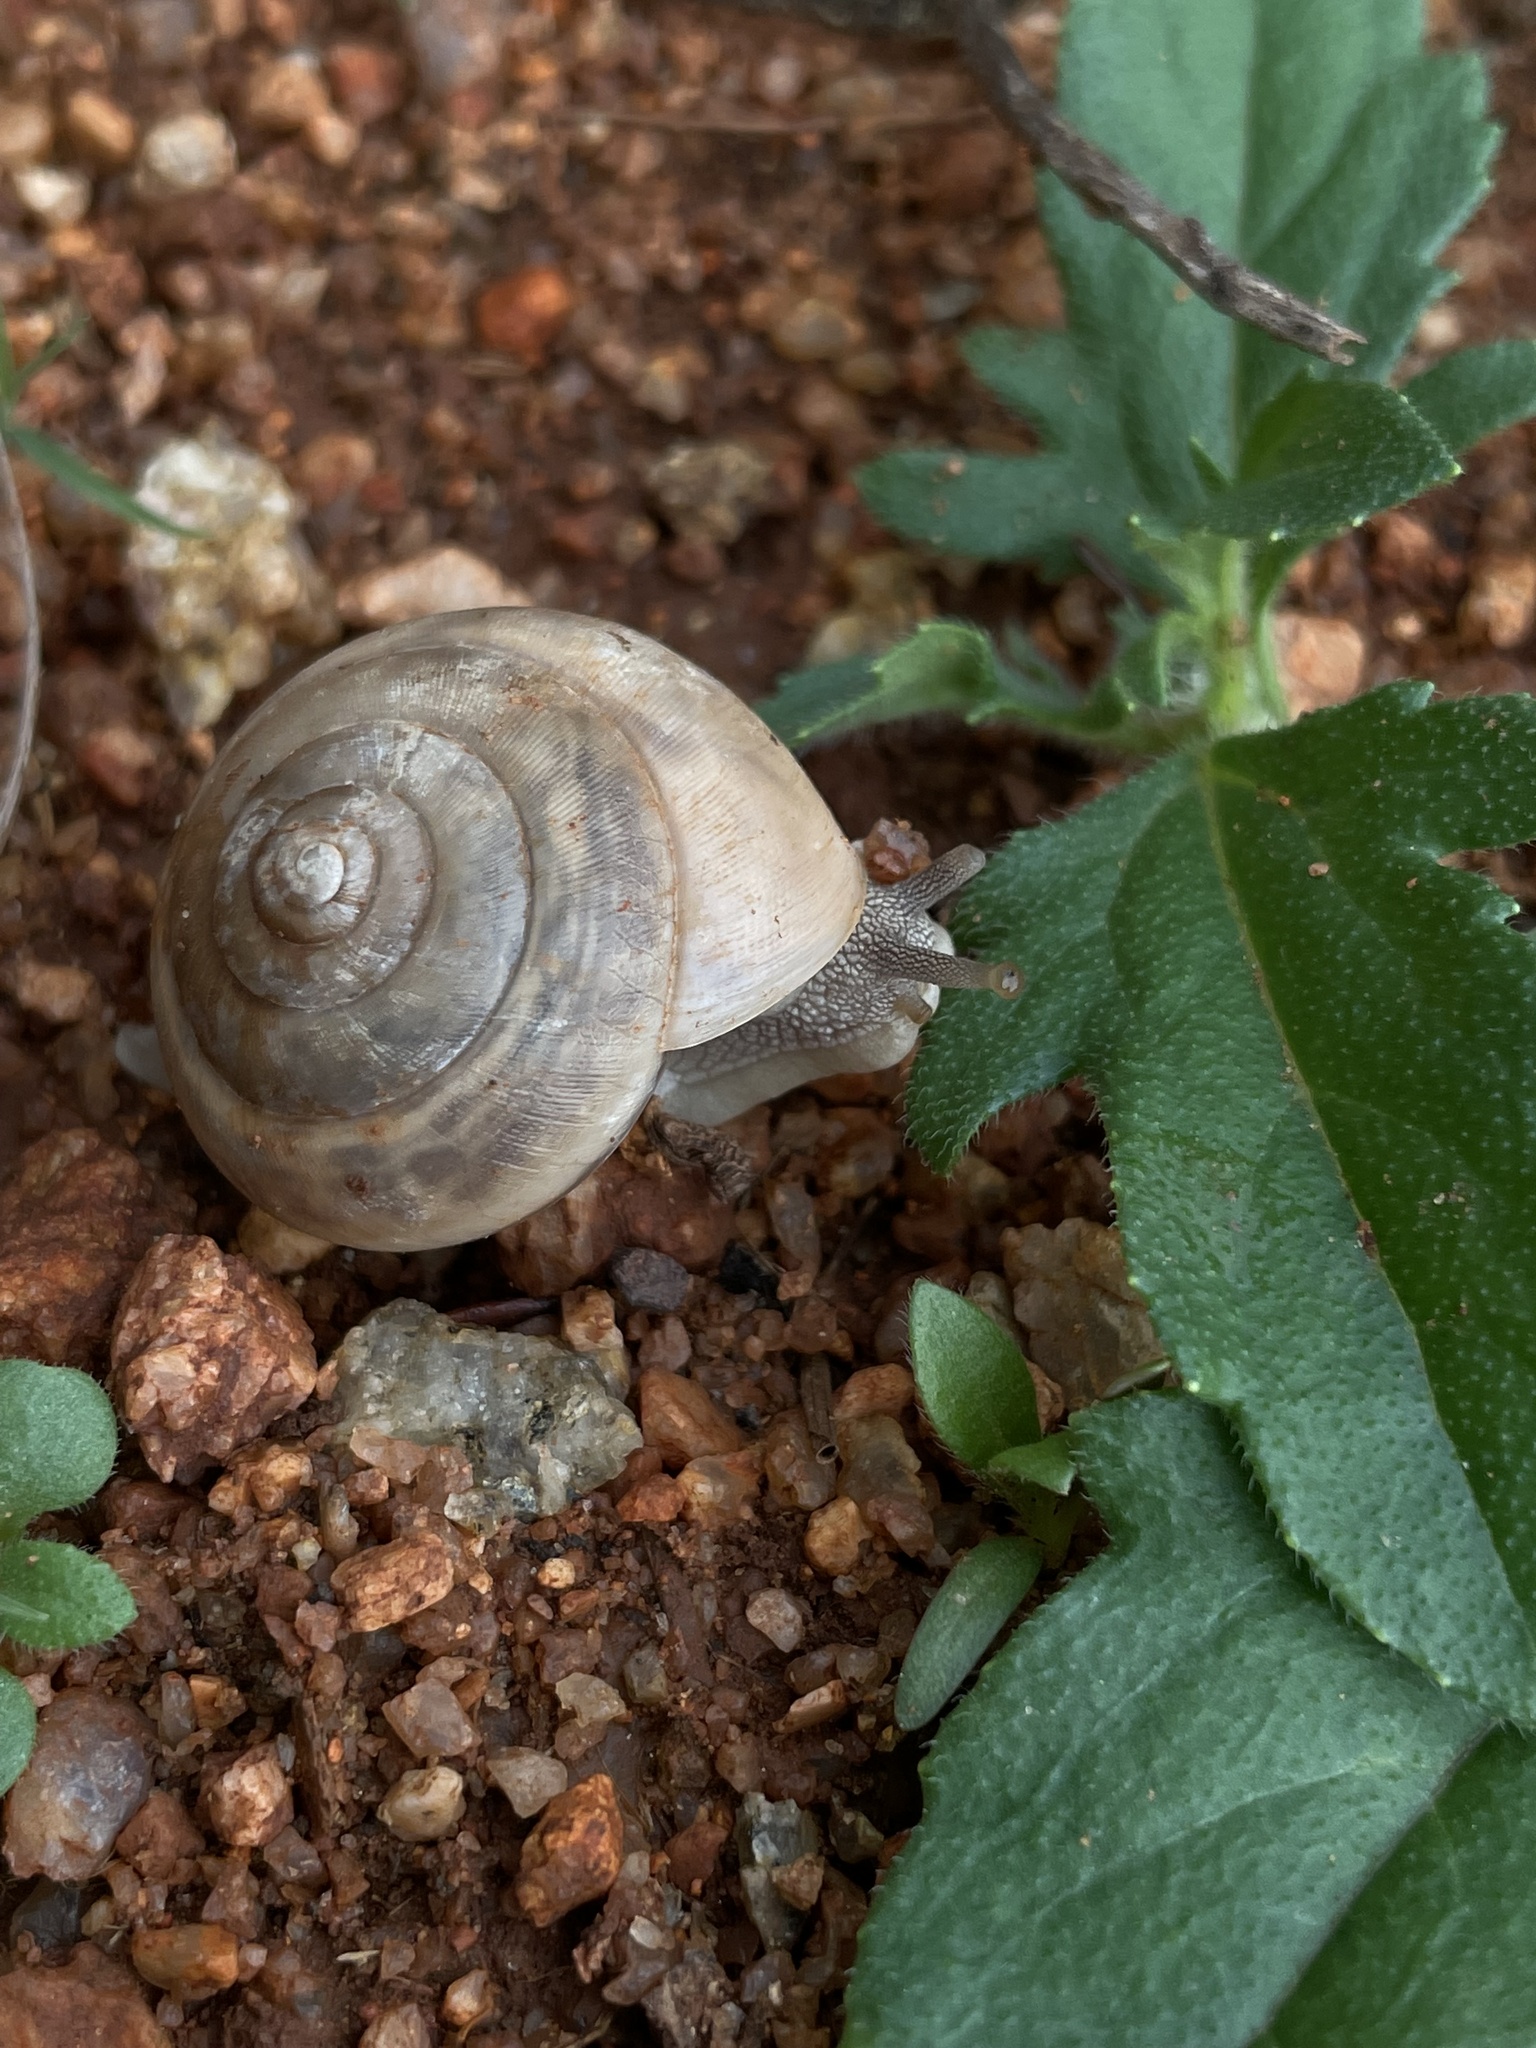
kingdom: Animalia
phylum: Mollusca
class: Gastropoda
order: Stylommatophora
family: Ariophantidae
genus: Euplecta
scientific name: Euplecta indica
